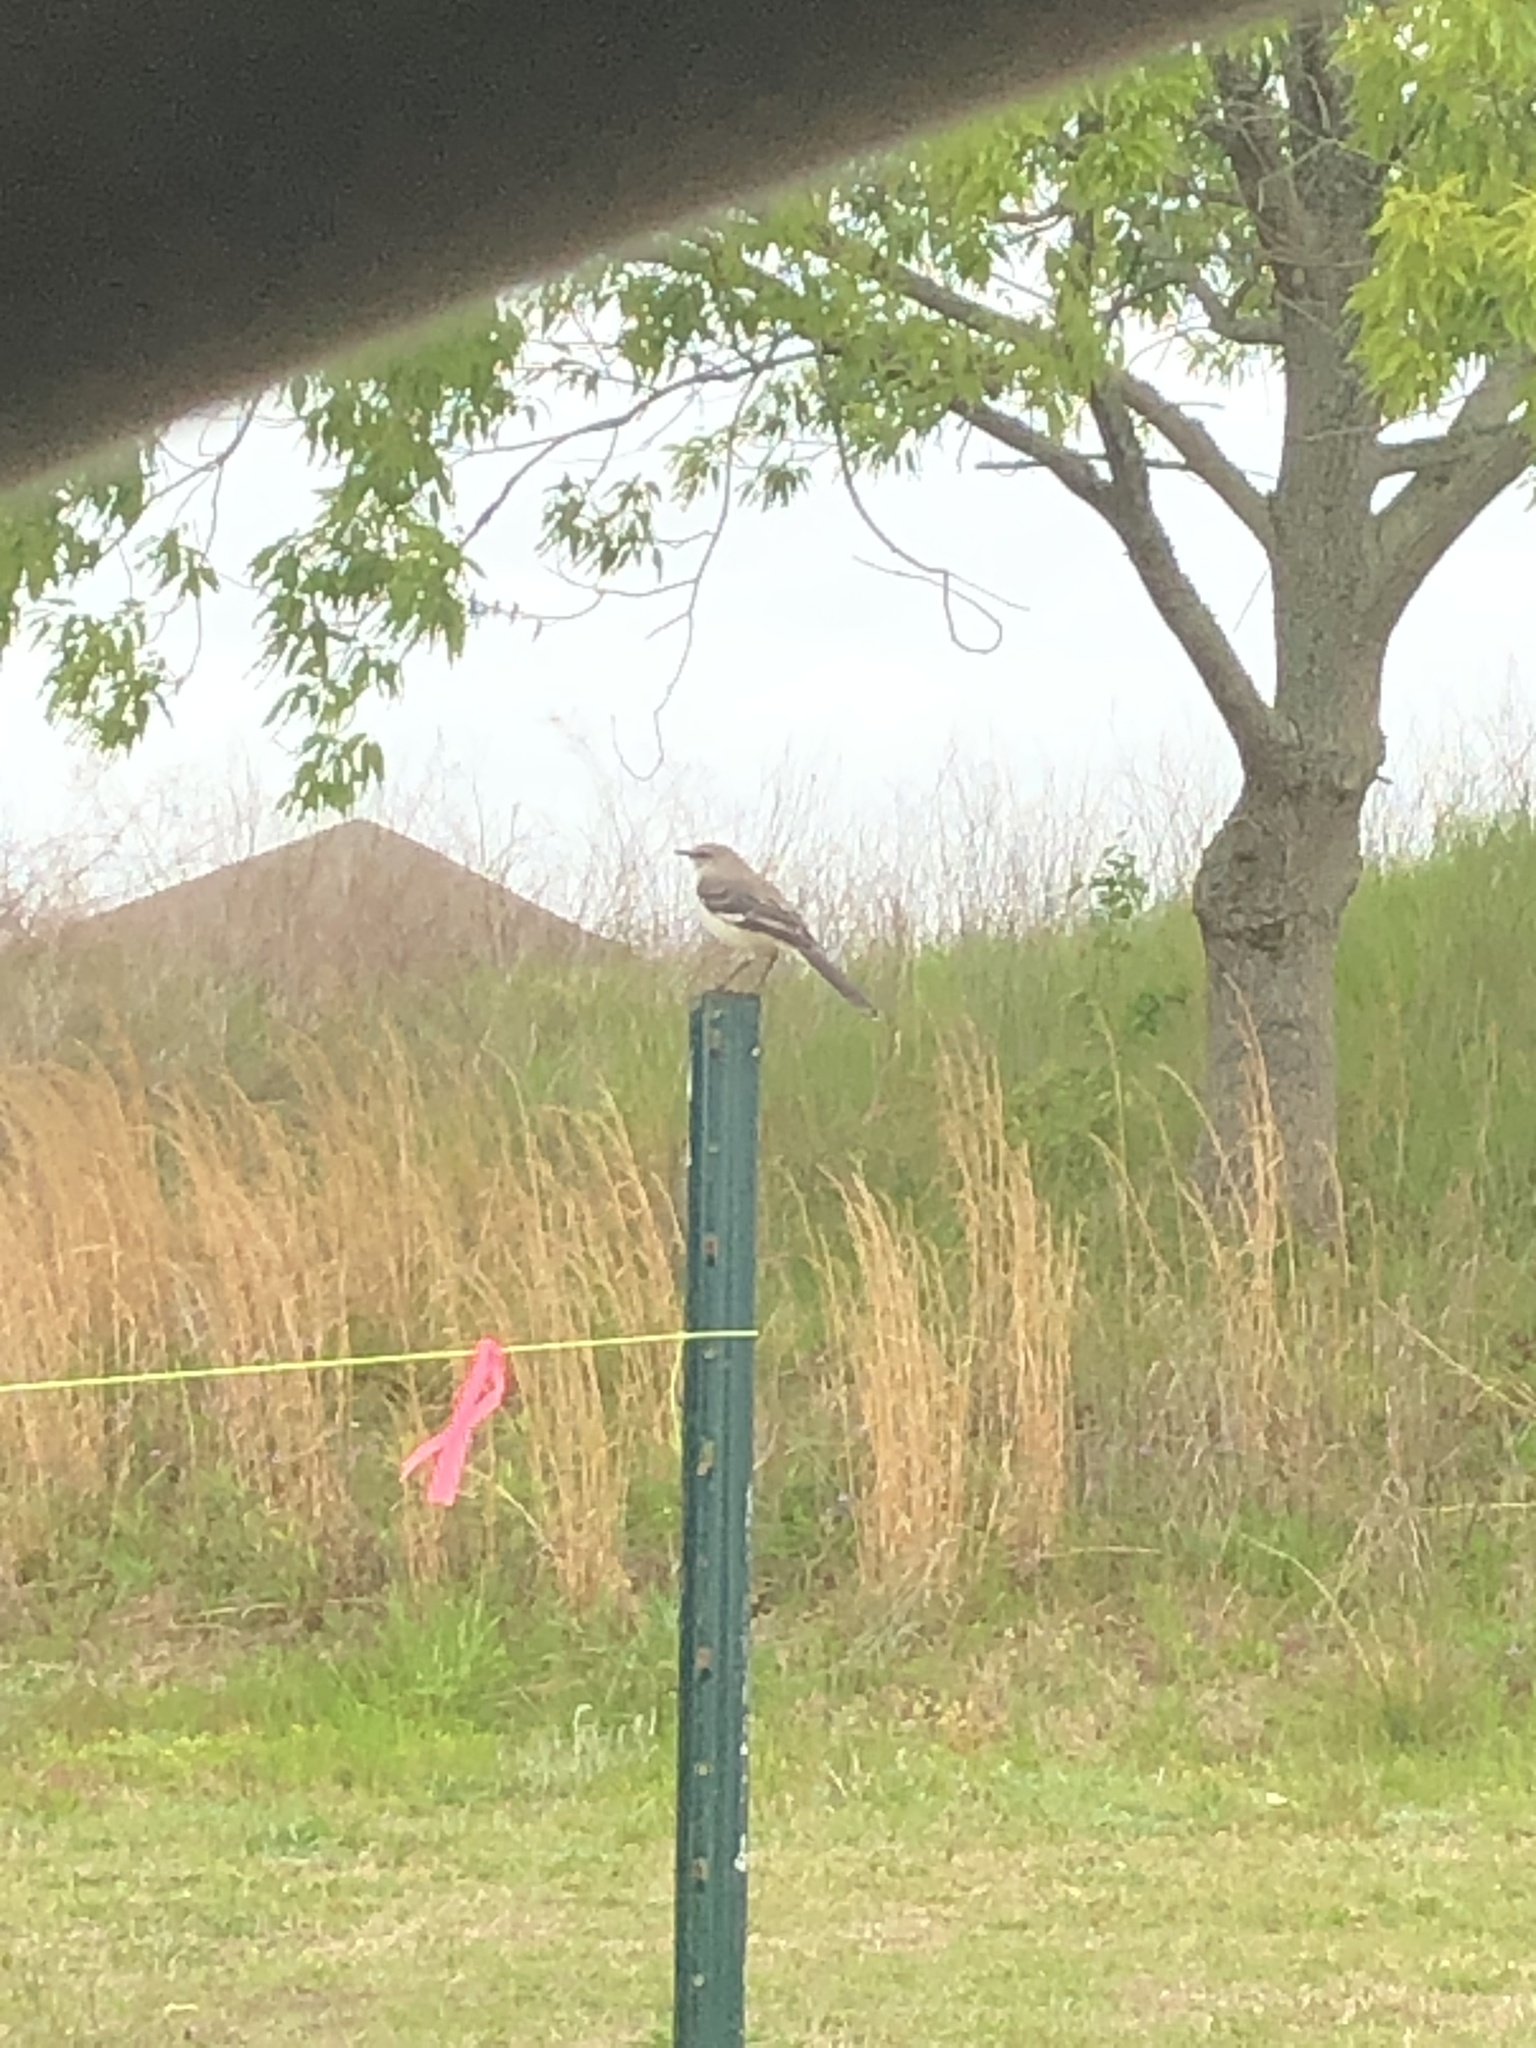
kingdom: Animalia
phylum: Chordata
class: Aves
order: Passeriformes
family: Mimidae
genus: Mimus
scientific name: Mimus polyglottos
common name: Northern mockingbird
